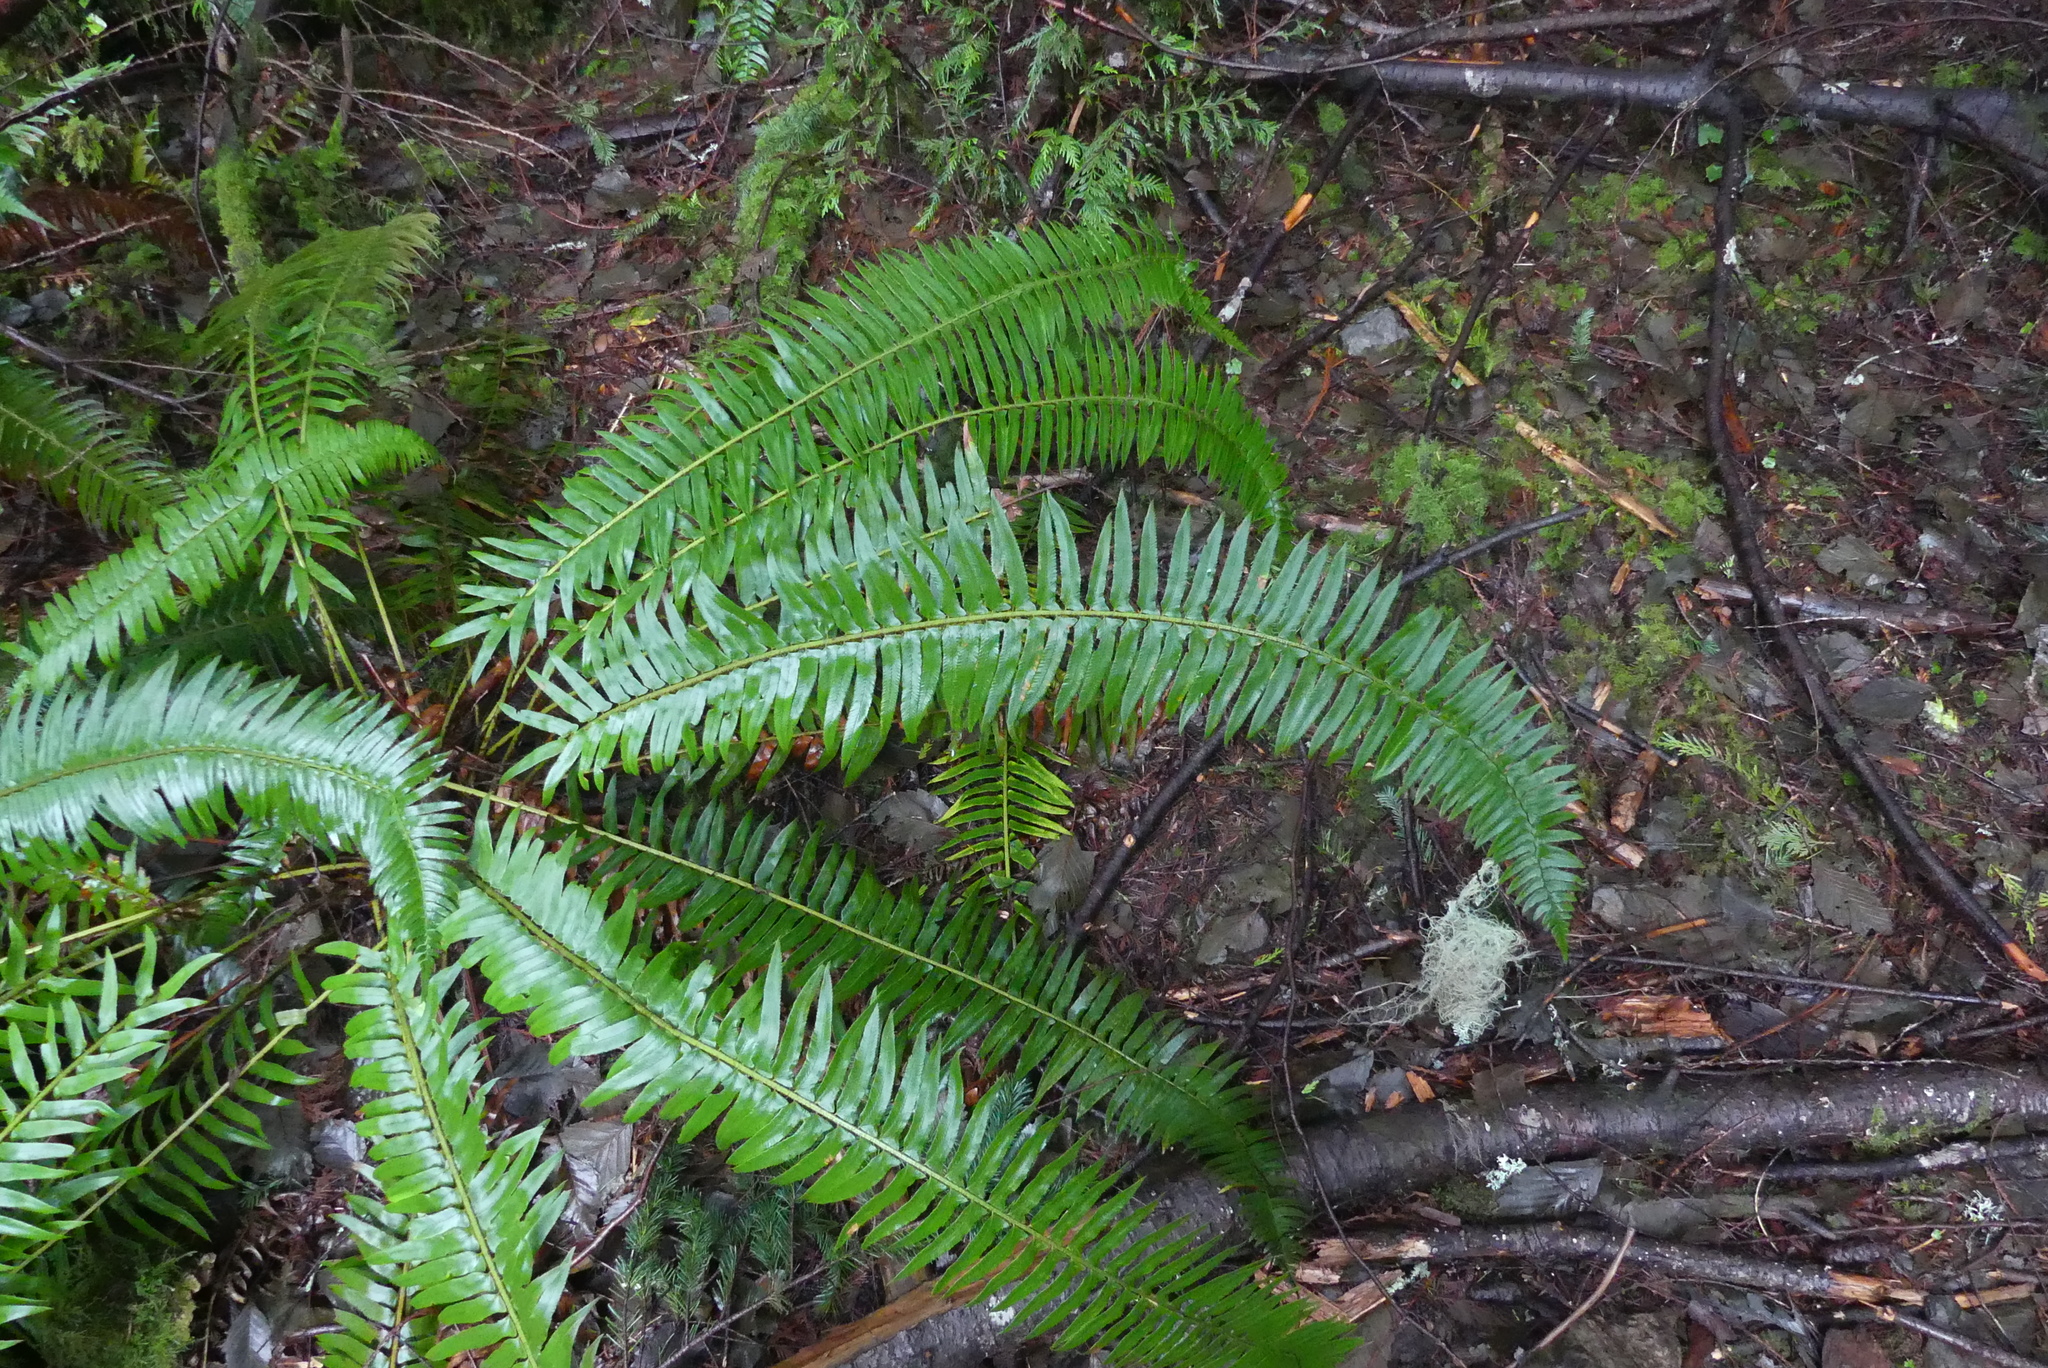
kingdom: Plantae
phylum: Tracheophyta
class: Polypodiopsida
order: Polypodiales
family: Dryopteridaceae
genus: Polystichum
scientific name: Polystichum munitum
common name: Western sword-fern
